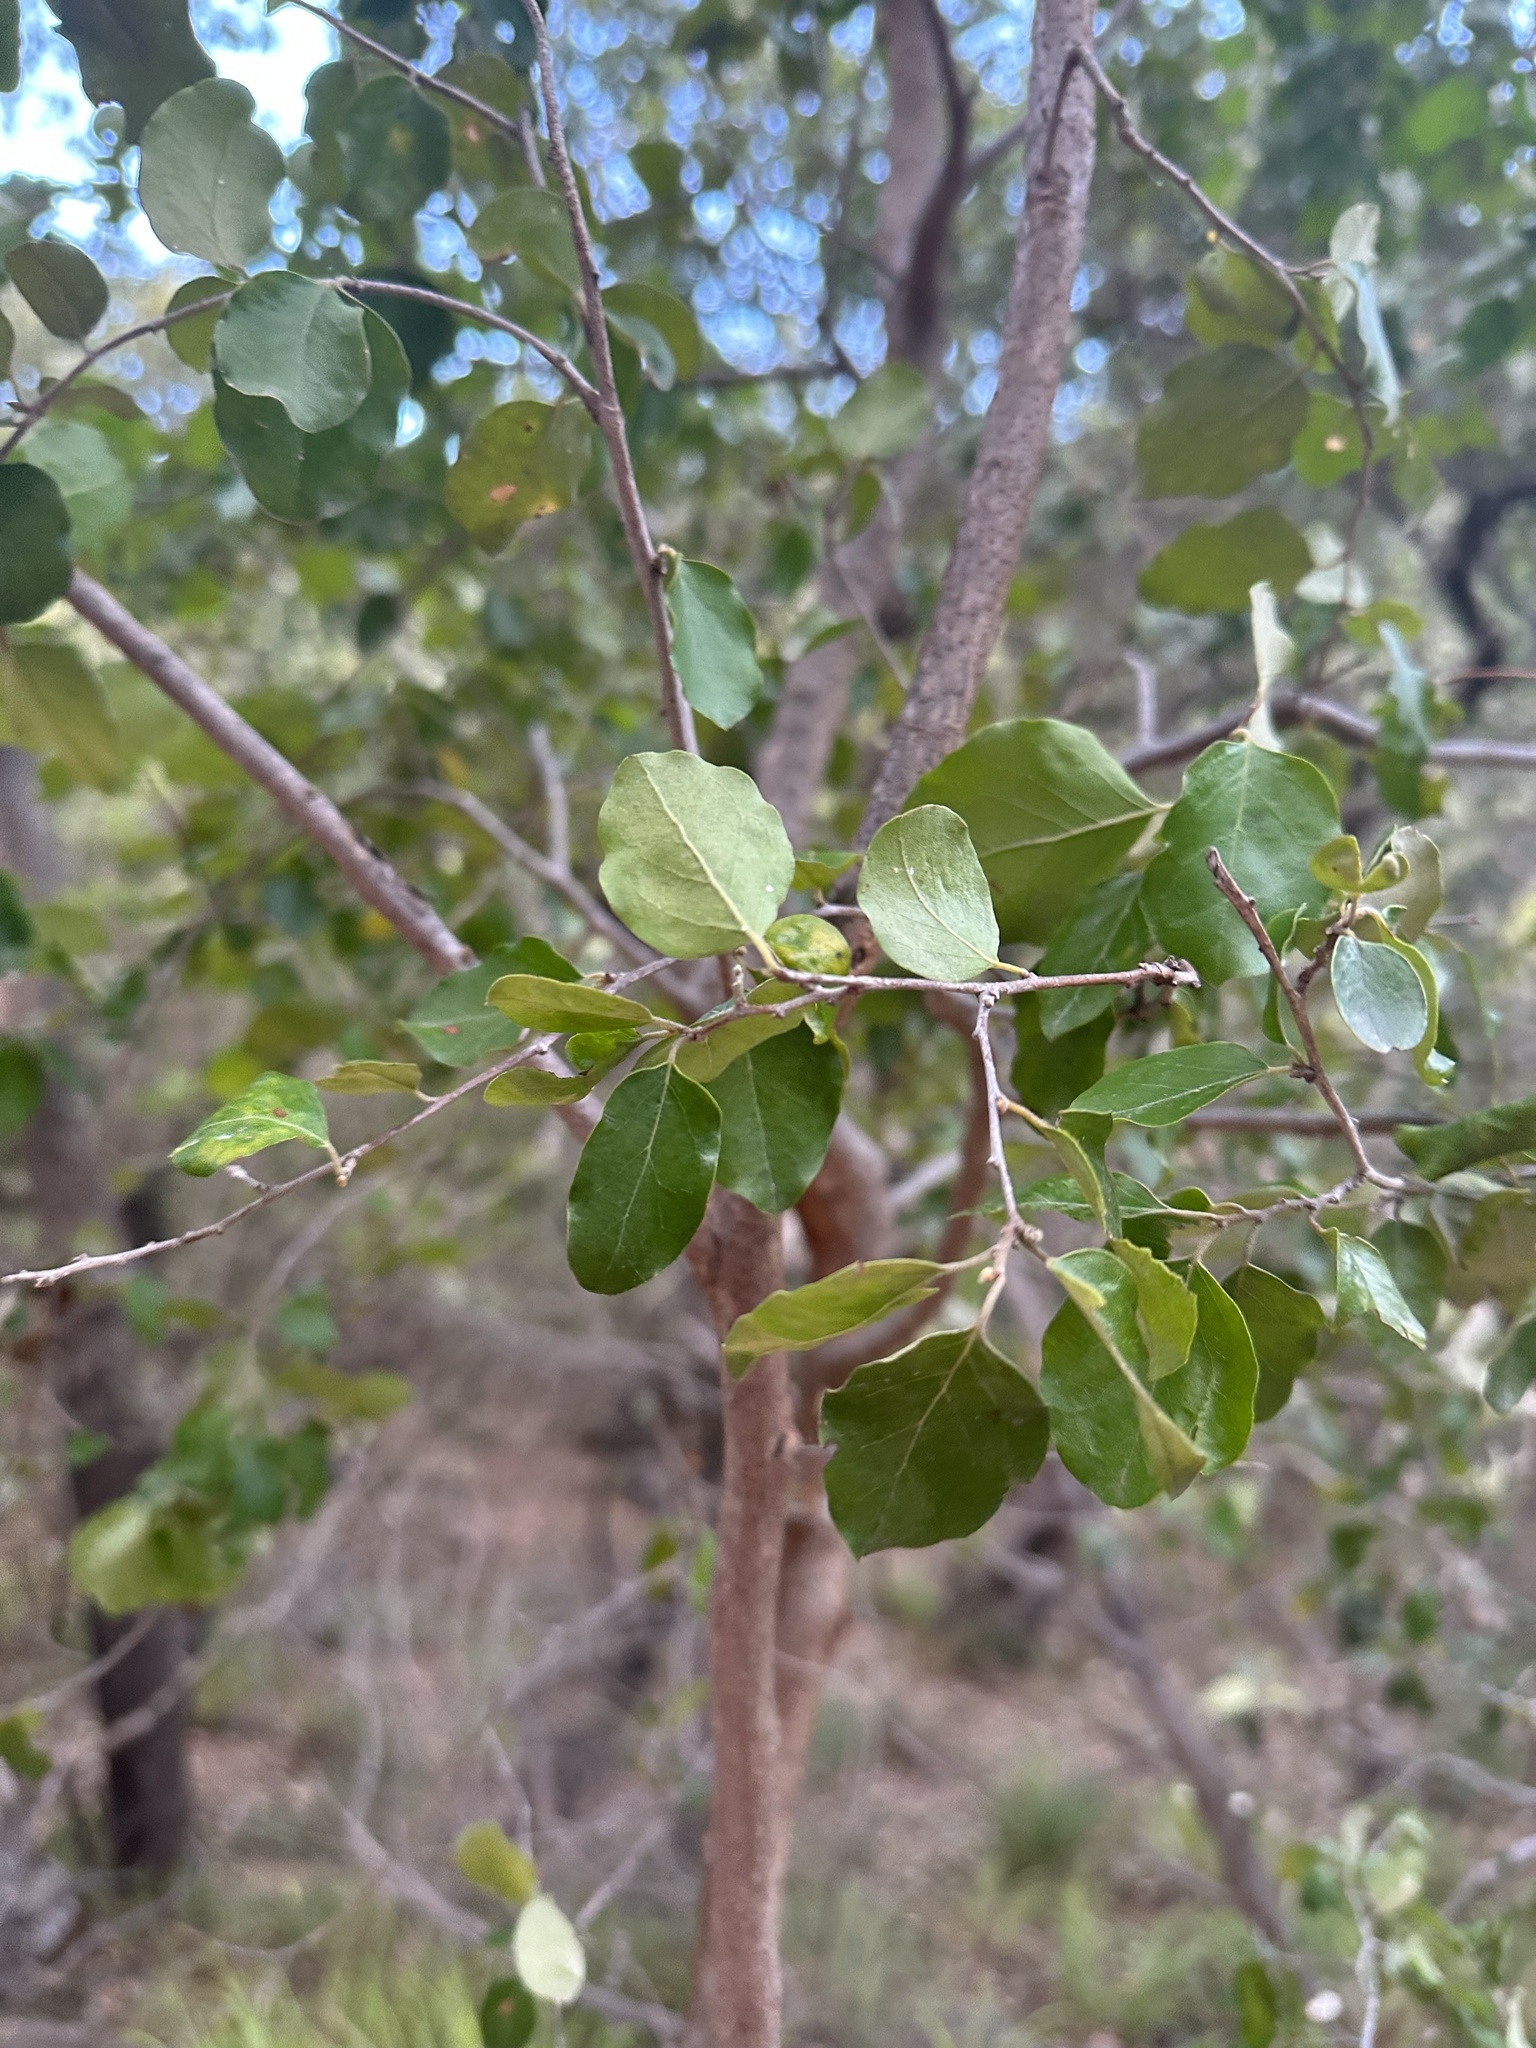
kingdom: Plantae
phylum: Tracheophyta
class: Magnoliopsida
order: Malpighiales
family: Picrodendraceae
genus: Petalostigma
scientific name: Petalostigma pubescens
